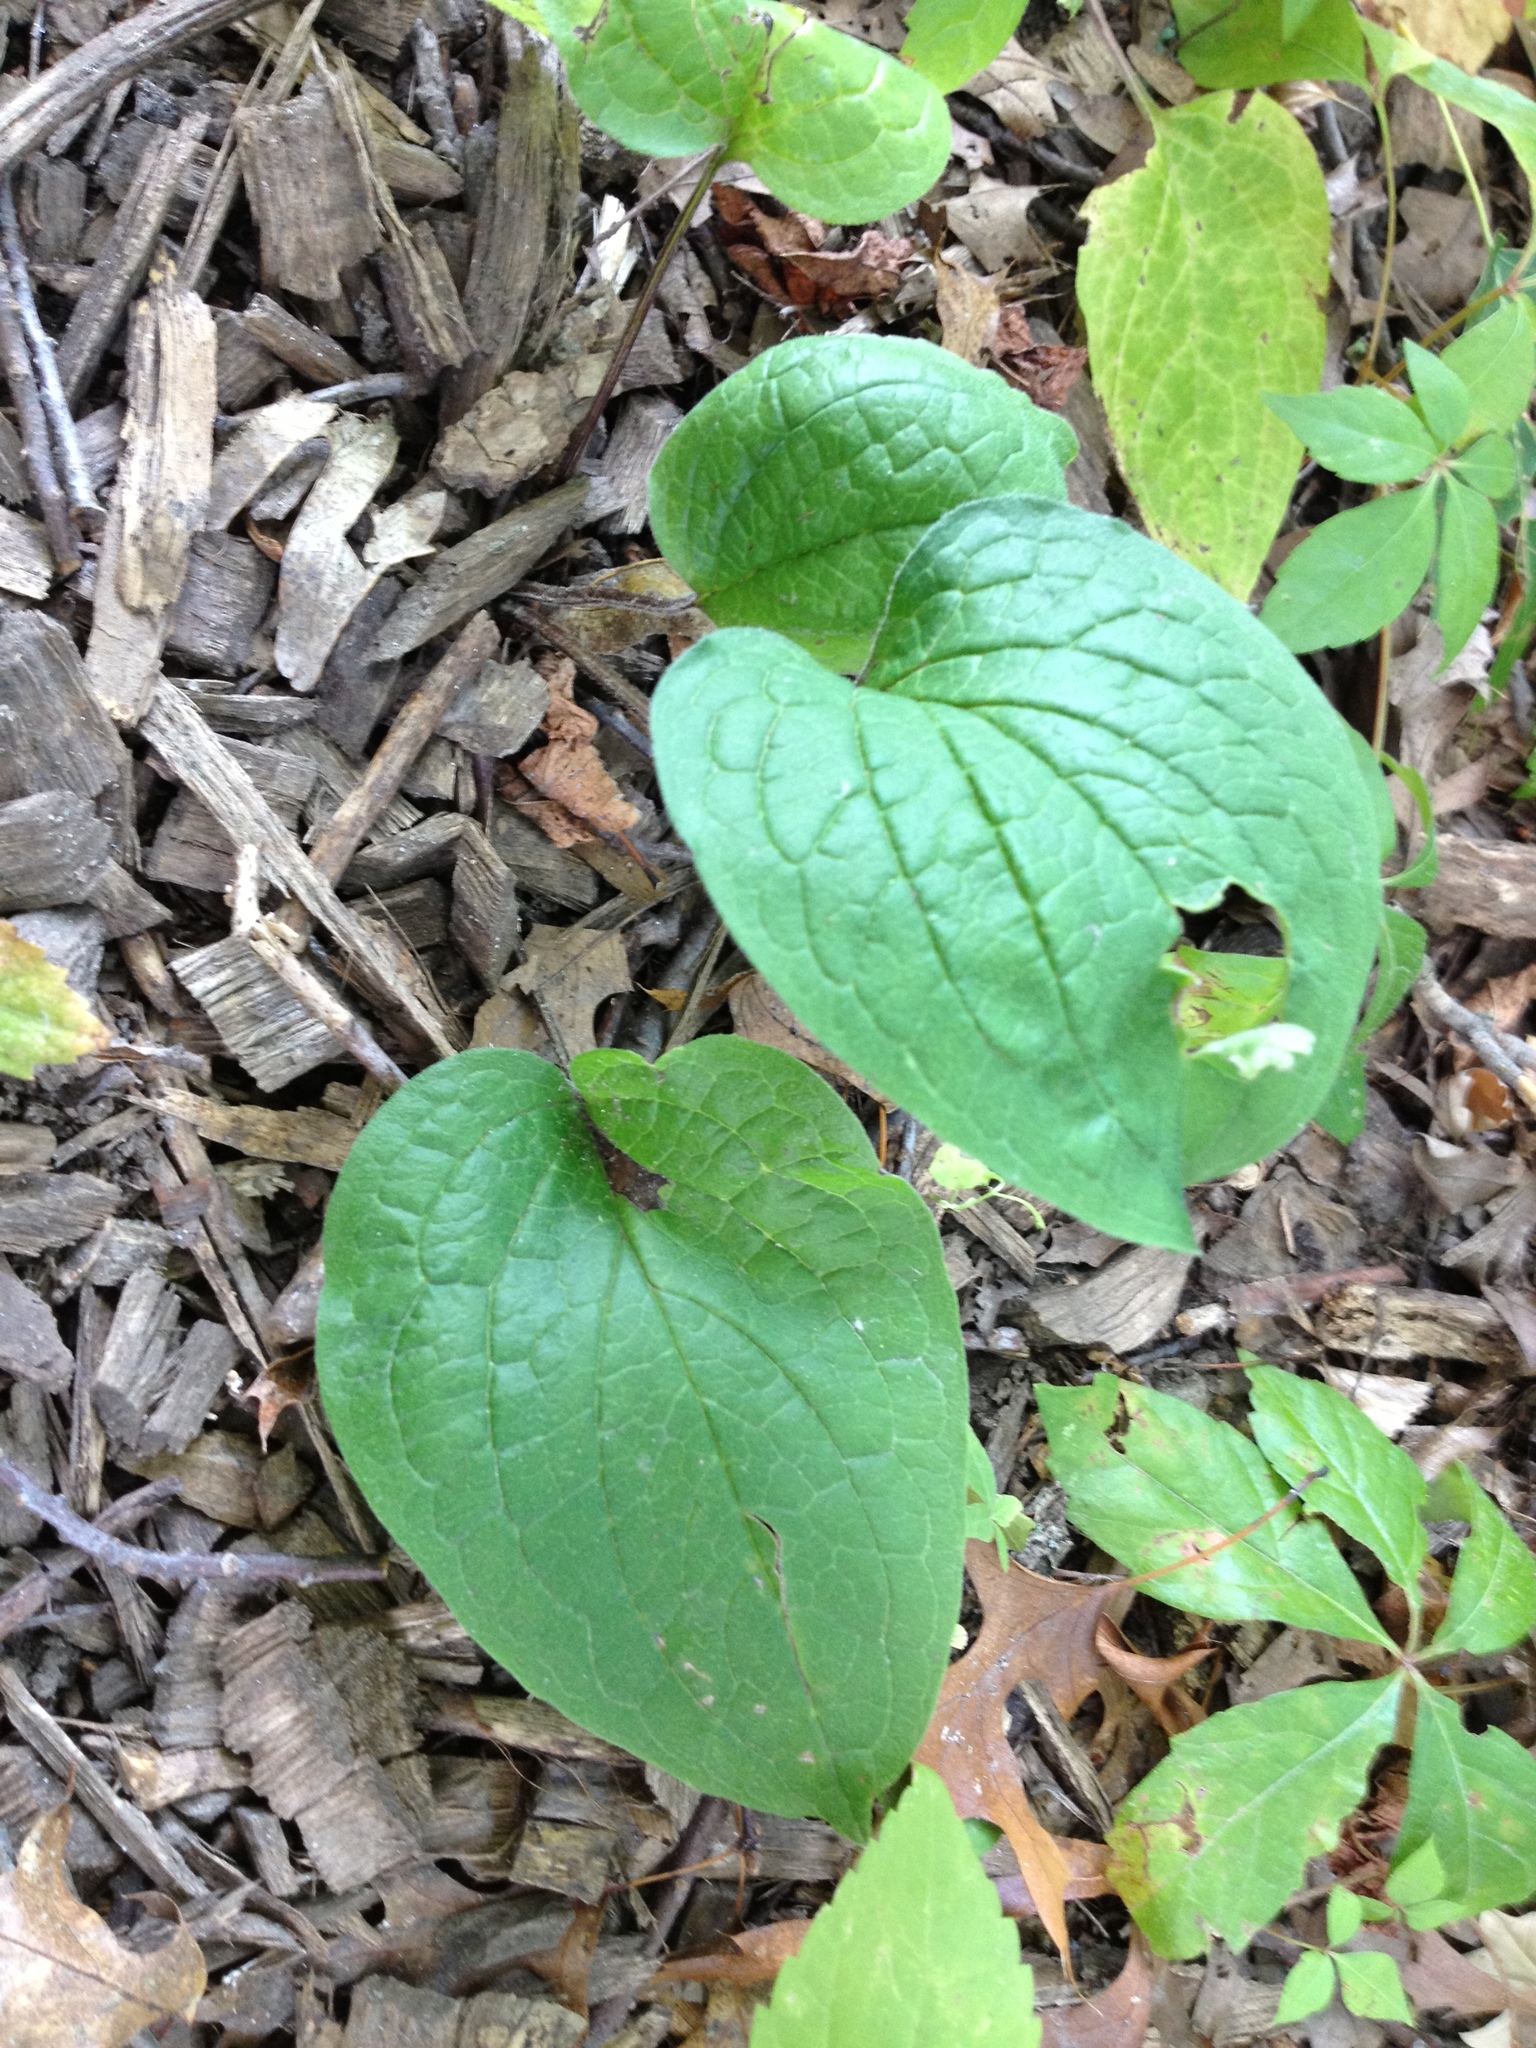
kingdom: Plantae
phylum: Tracheophyta
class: Magnoliopsida
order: Boraginales
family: Boraginaceae
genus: Hackelia
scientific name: Hackelia virginiana
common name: Beggar's-lice
